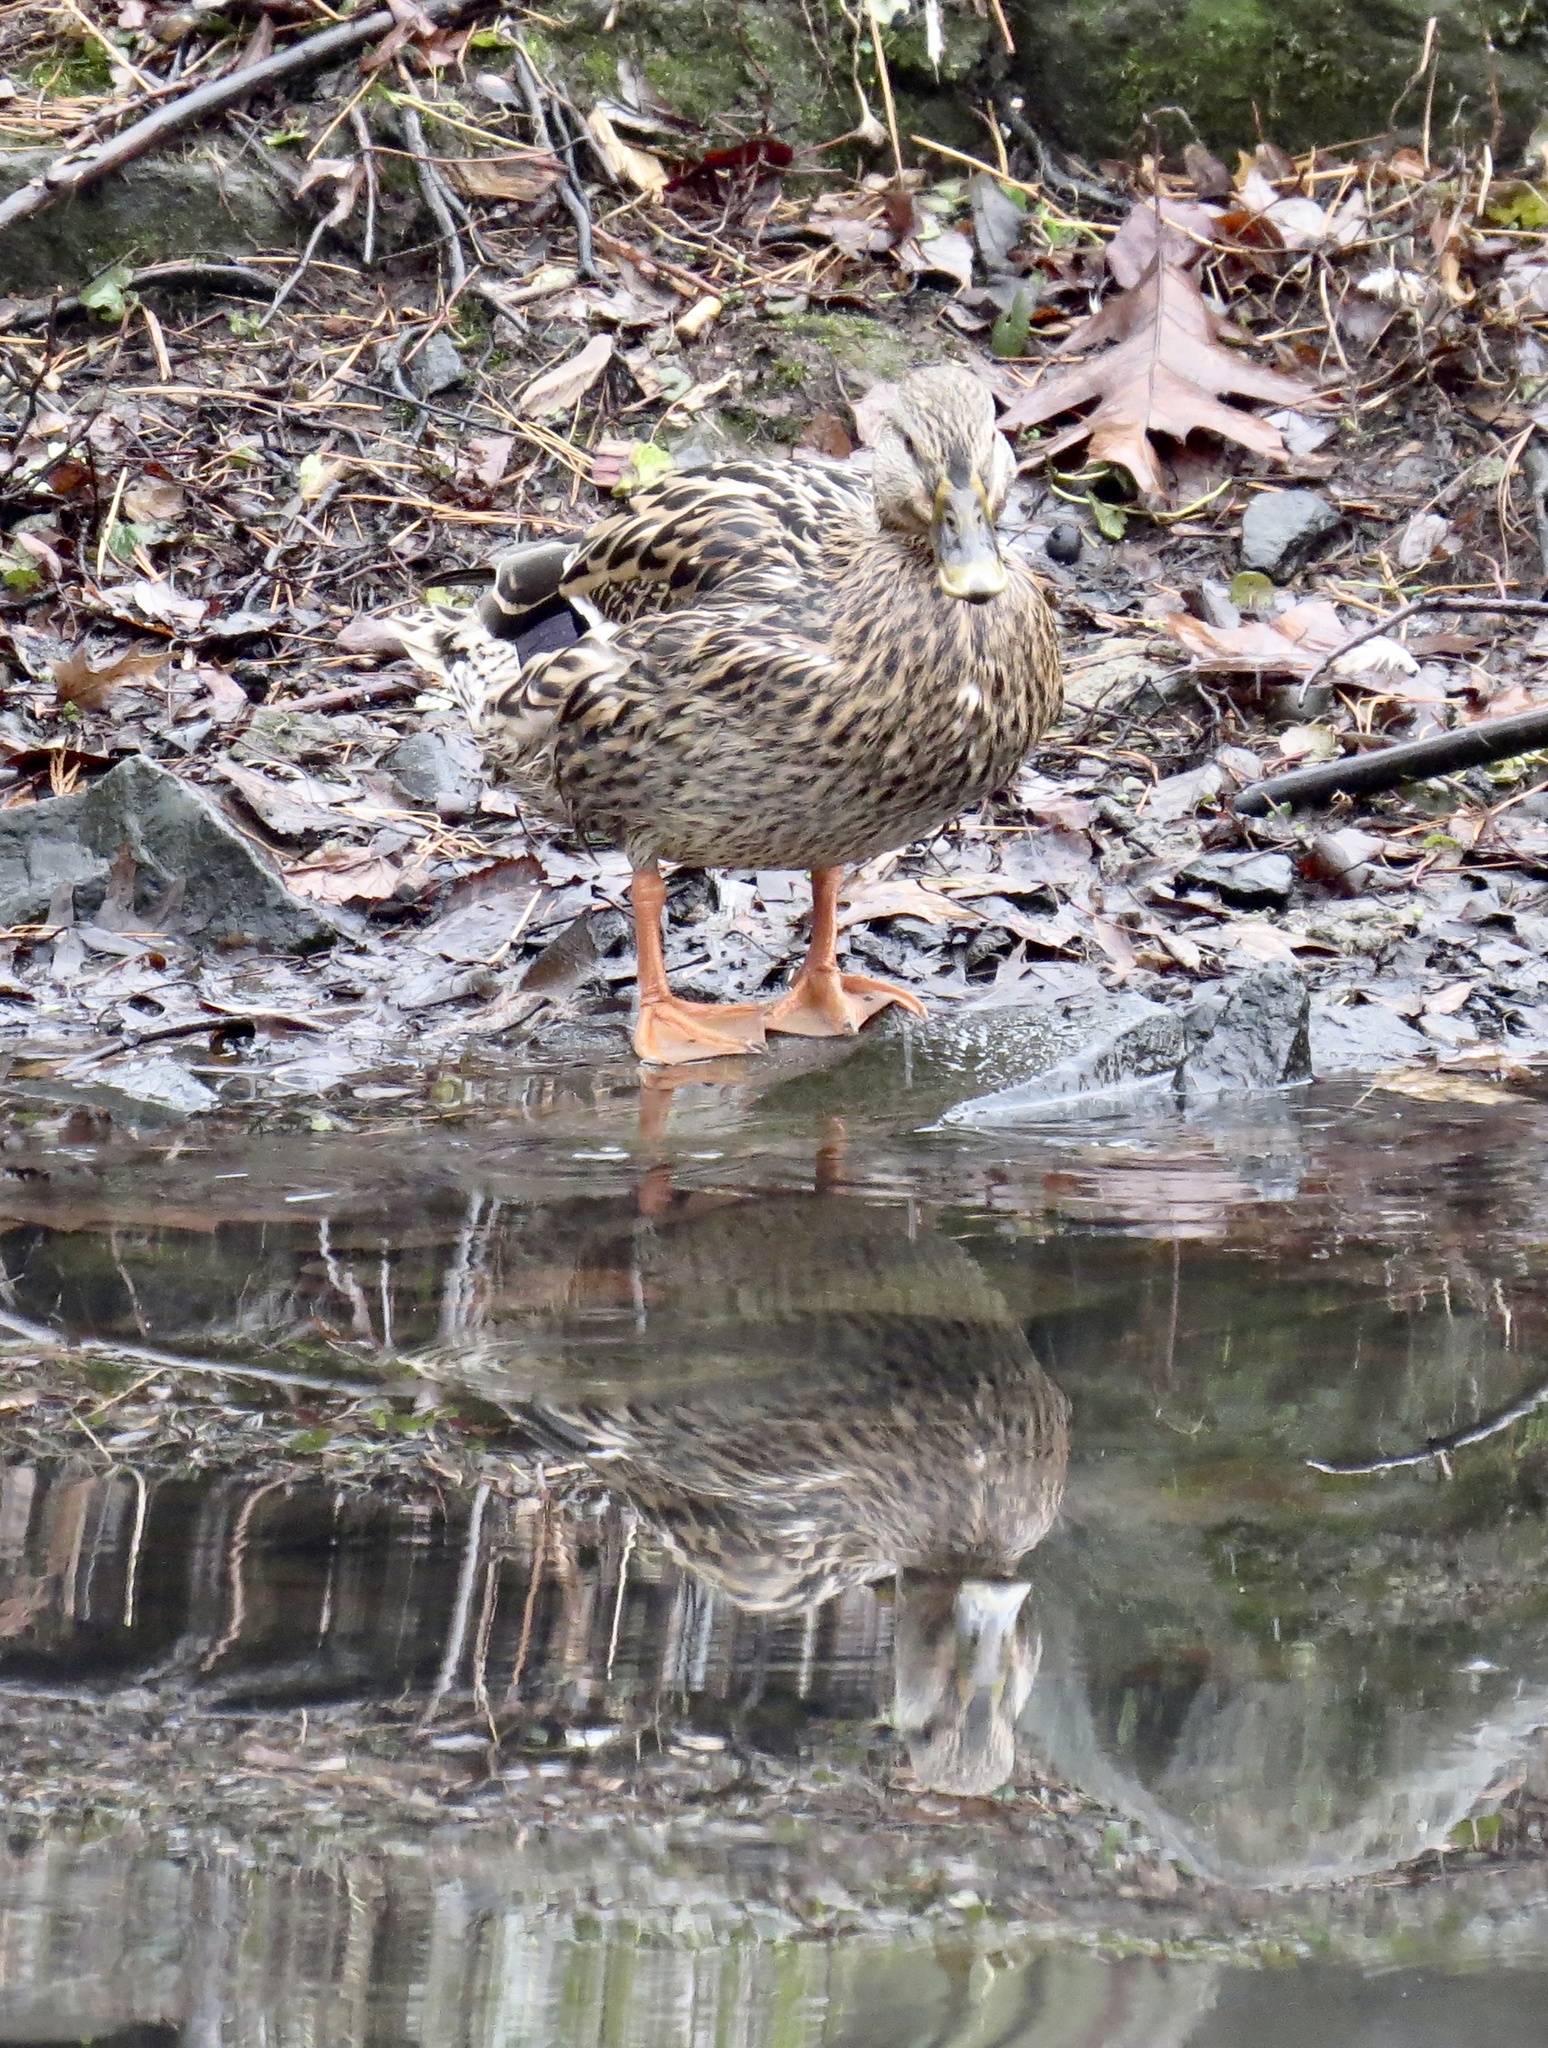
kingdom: Animalia
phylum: Chordata
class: Aves
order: Anseriformes
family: Anatidae
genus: Anas
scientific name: Anas platyrhynchos
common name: Mallard
